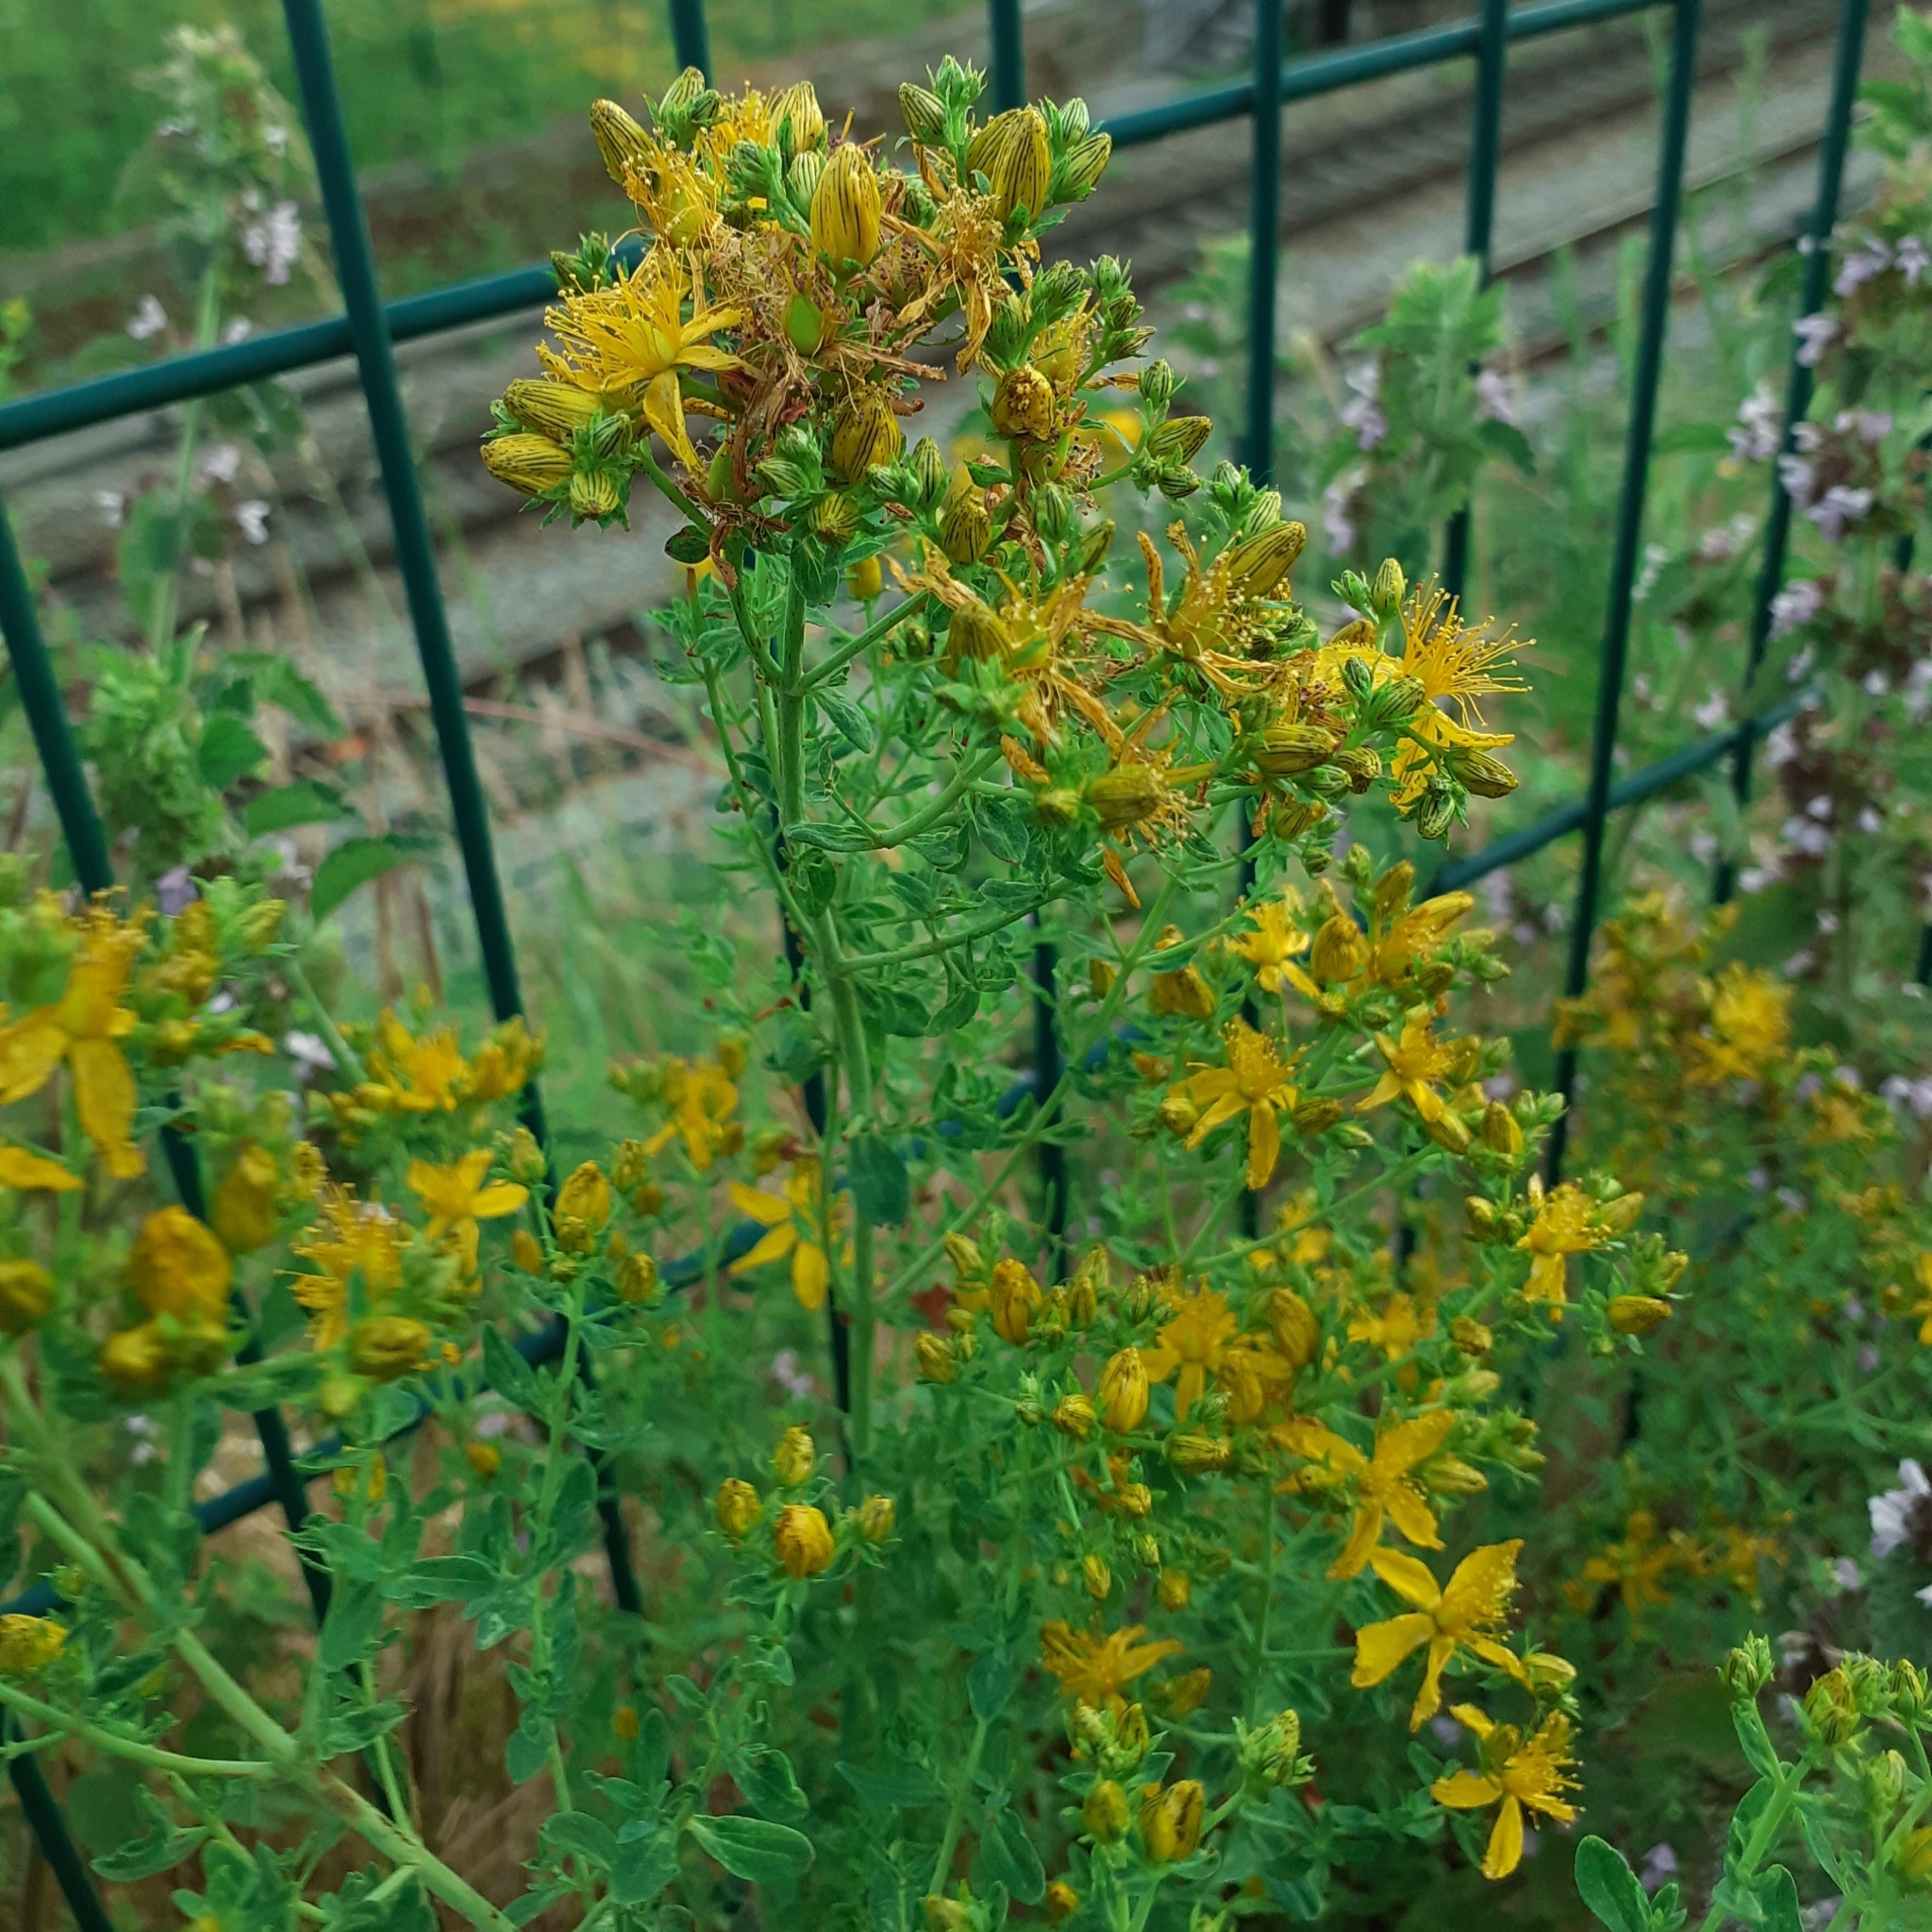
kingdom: Plantae
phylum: Tracheophyta
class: Magnoliopsida
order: Malpighiales
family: Hypericaceae
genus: Hypericum
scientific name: Hypericum perforatum
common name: Common st. johnswort
